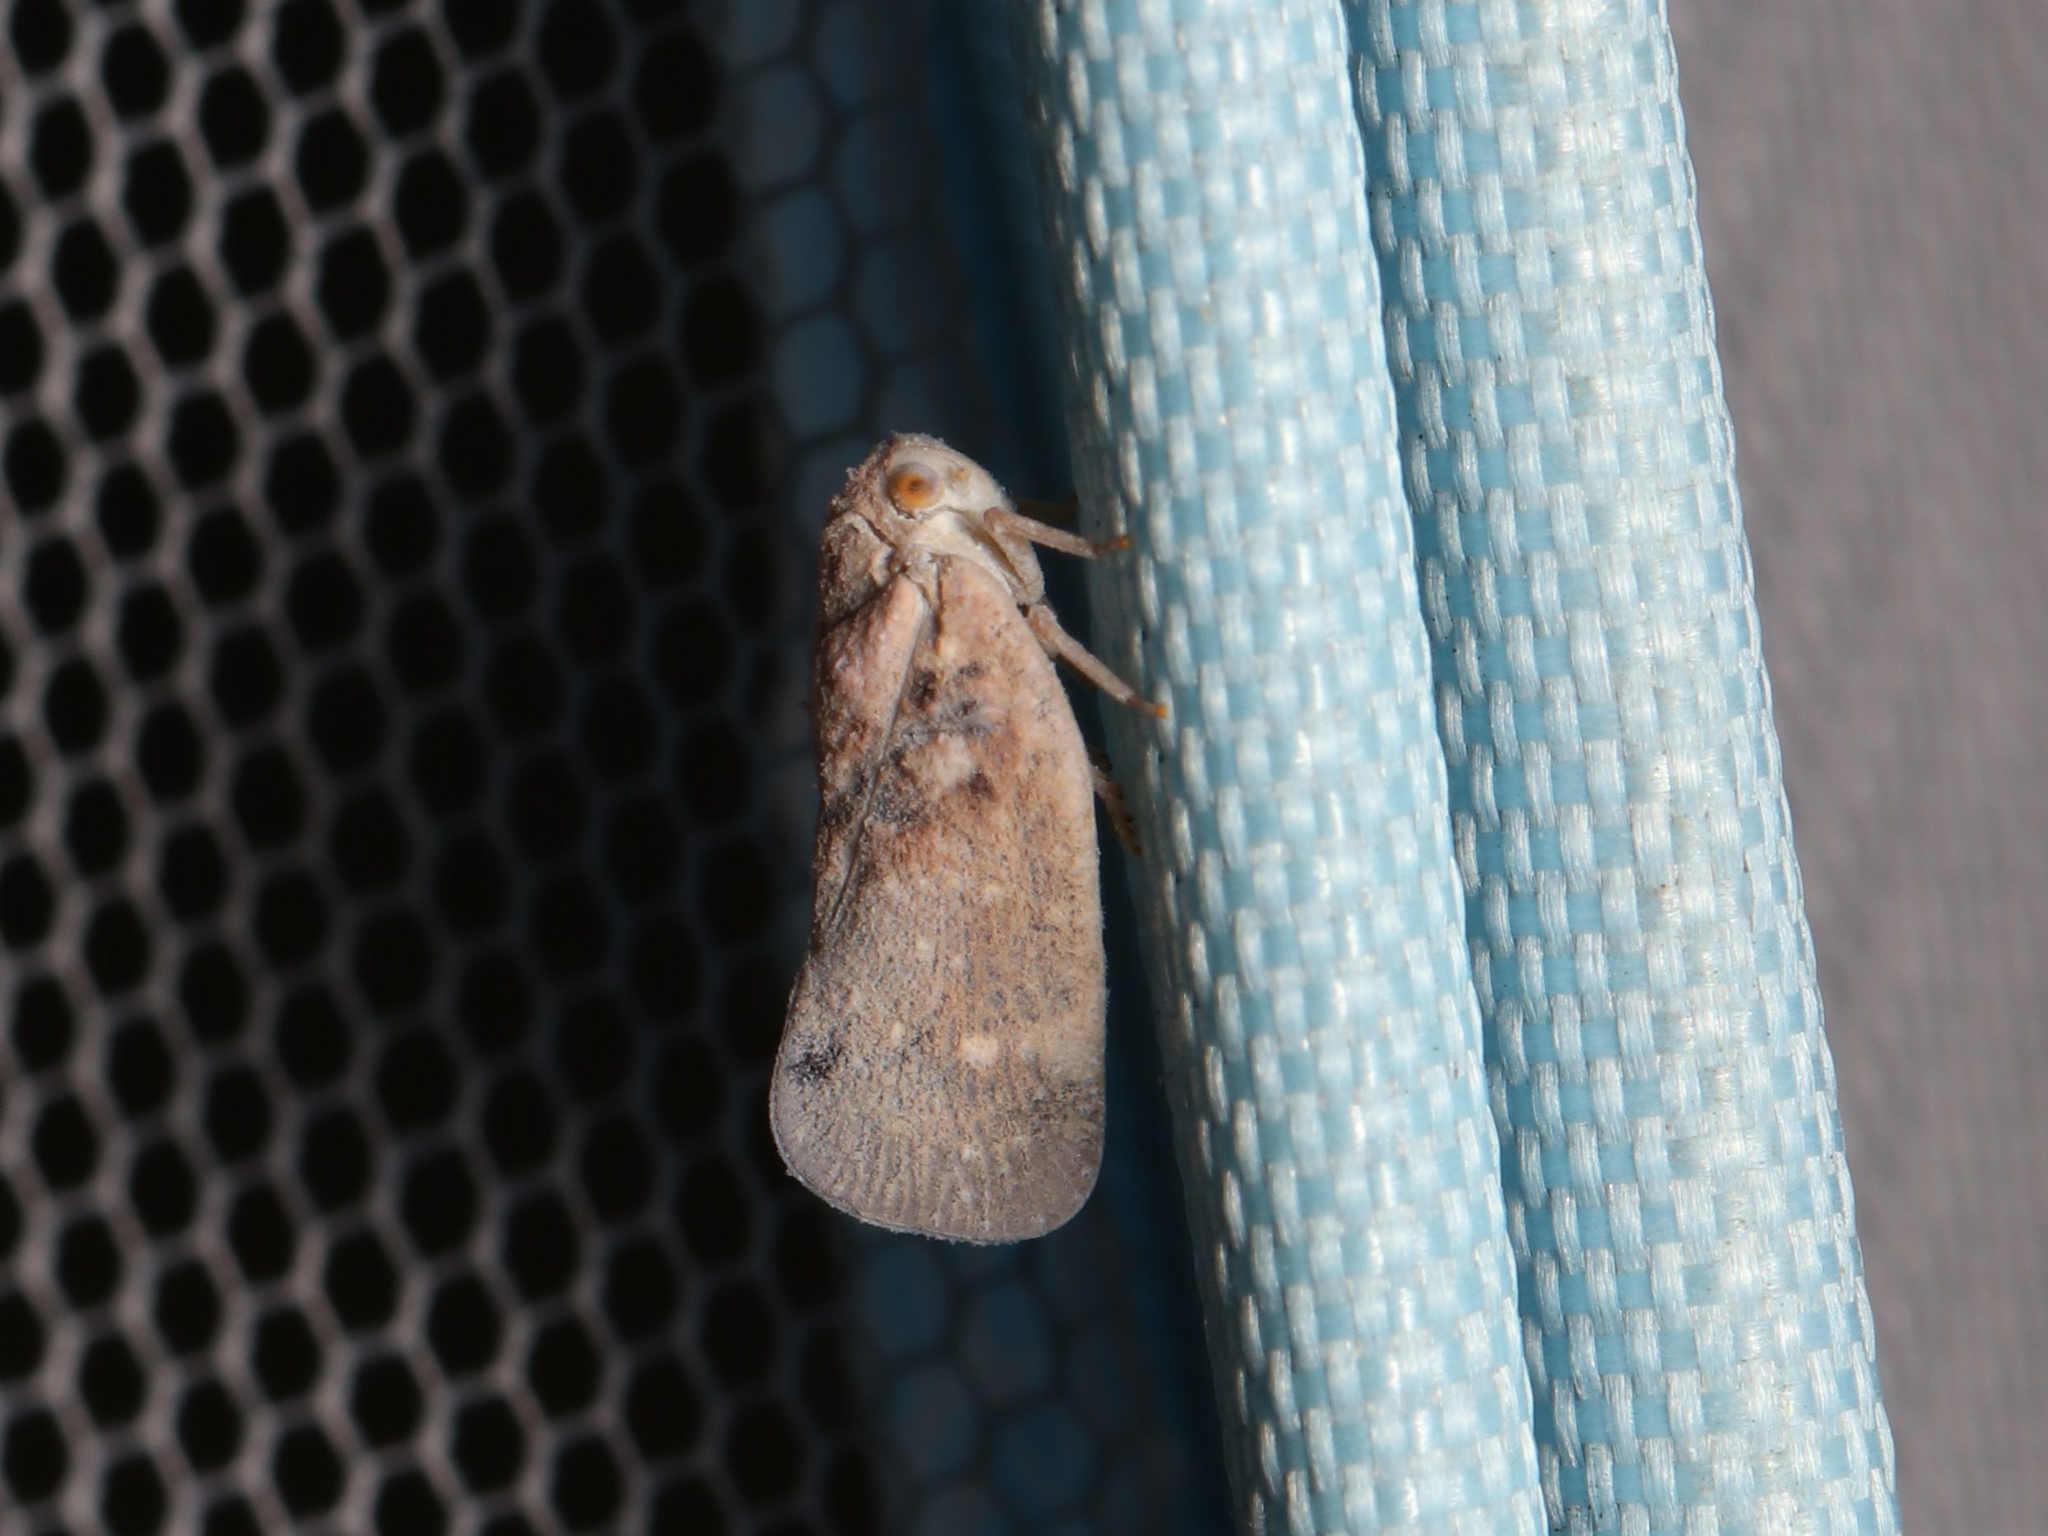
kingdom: Animalia
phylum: Arthropoda
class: Insecta
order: Hemiptera
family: Flatidae
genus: Metcalfa
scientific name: Metcalfa pruinosa
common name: Citrus flatid planthopper
